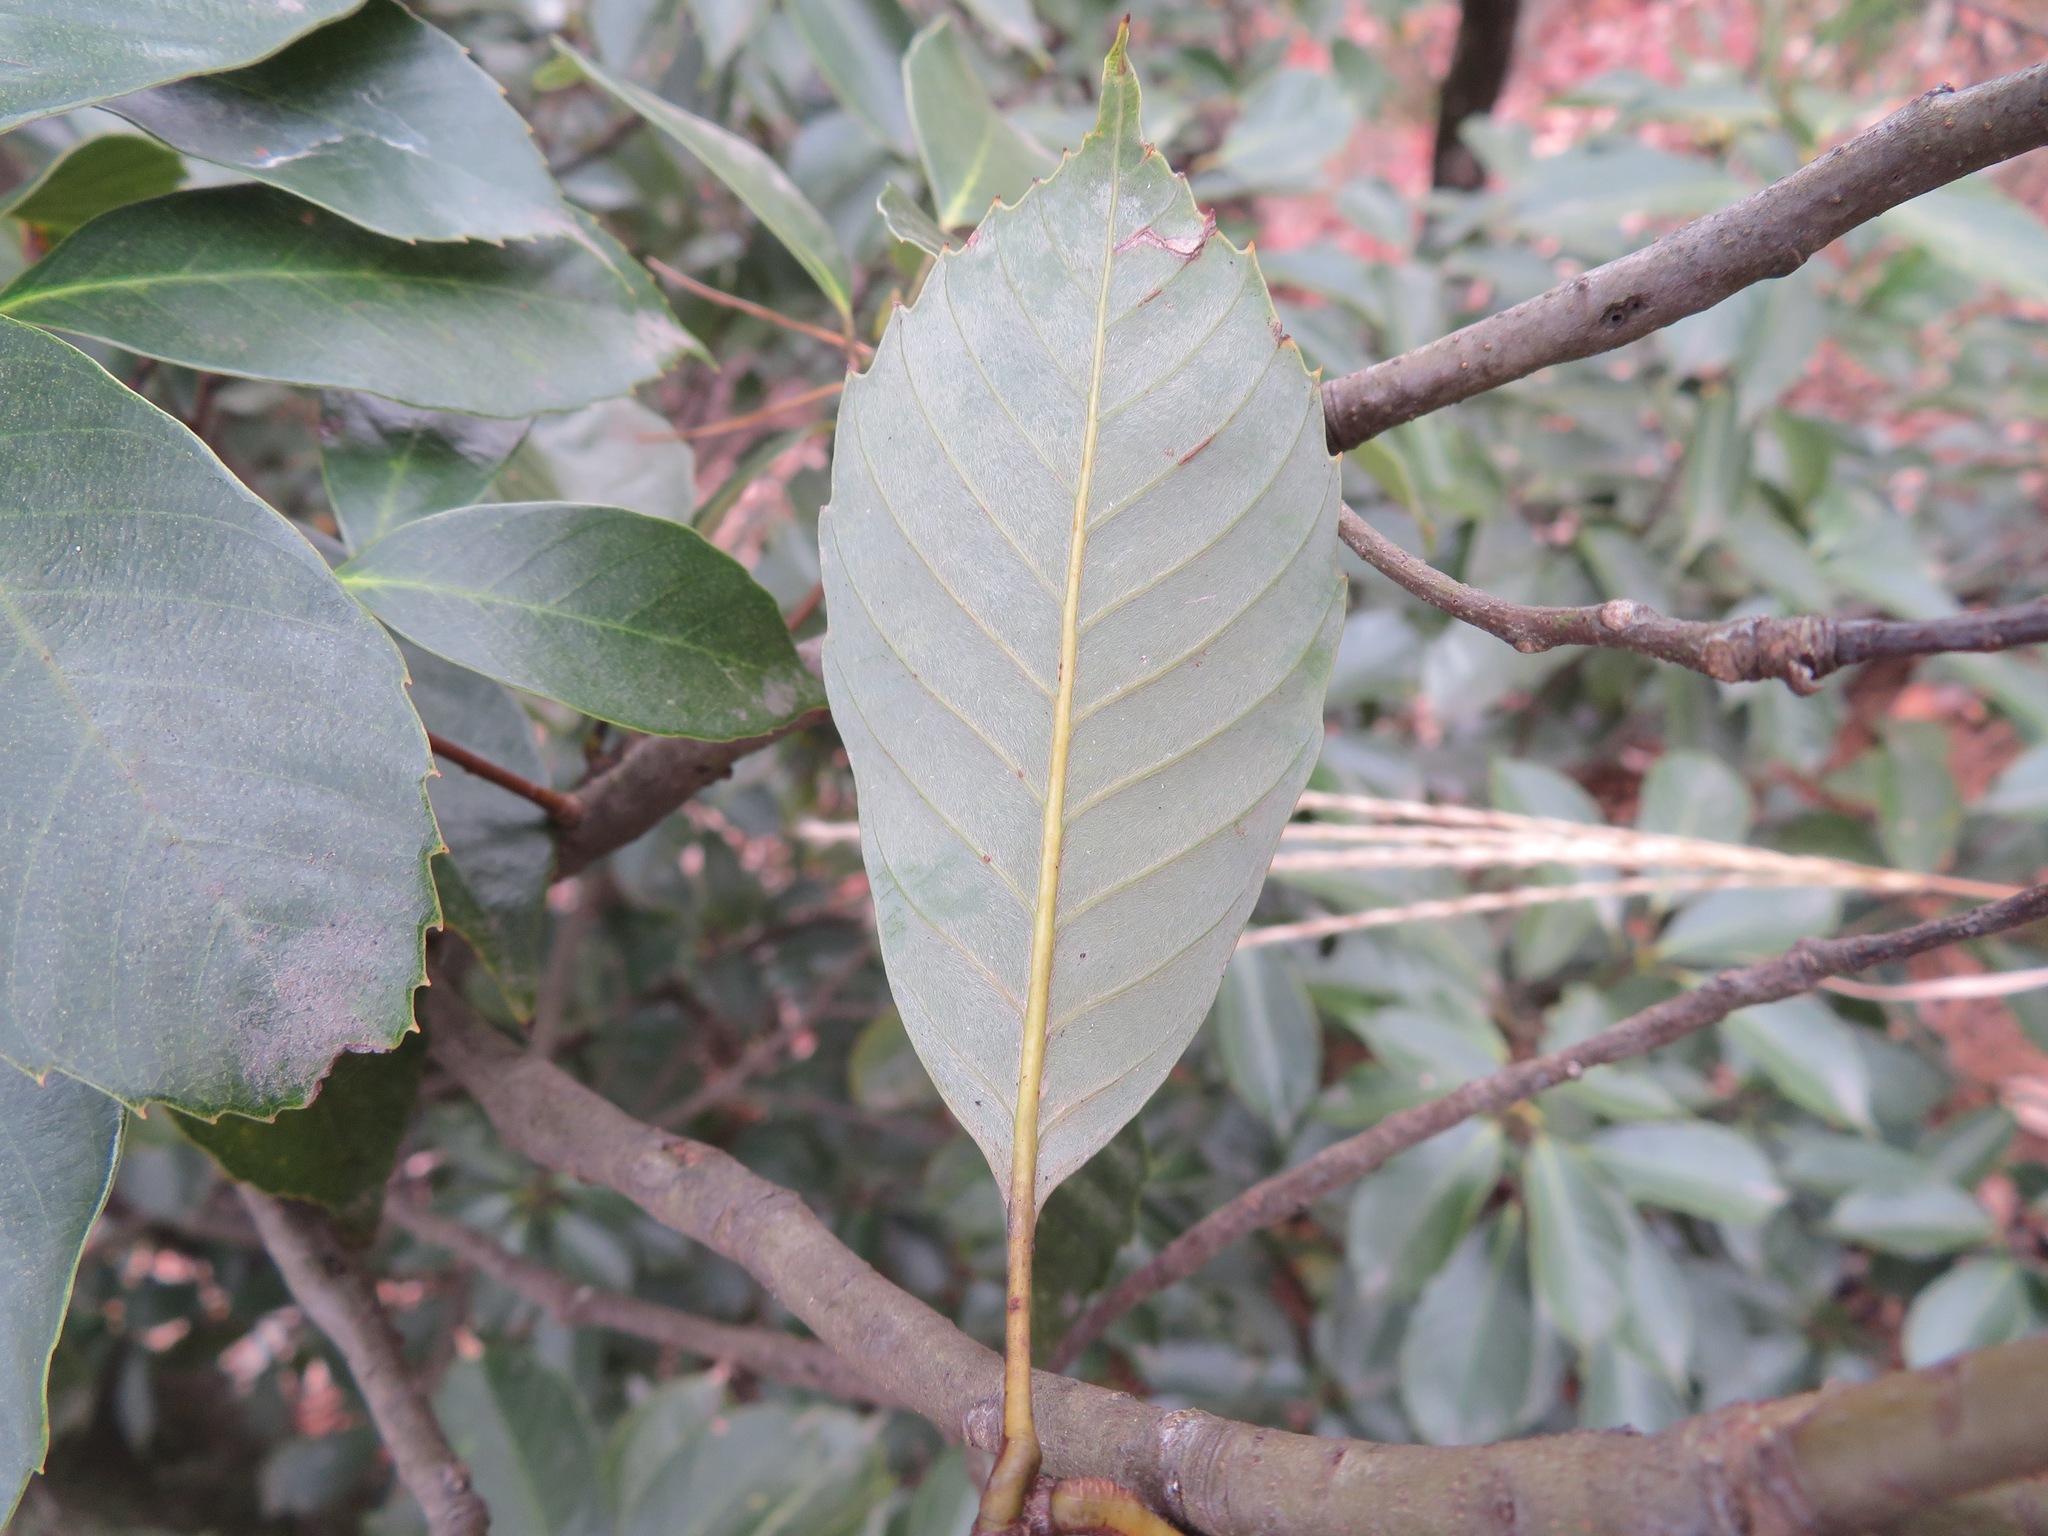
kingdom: Plantae
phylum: Tracheophyta
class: Magnoliopsida
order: Fagales
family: Fagaceae
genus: Quercus
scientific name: Quercus glauca
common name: Ring-cup oak
